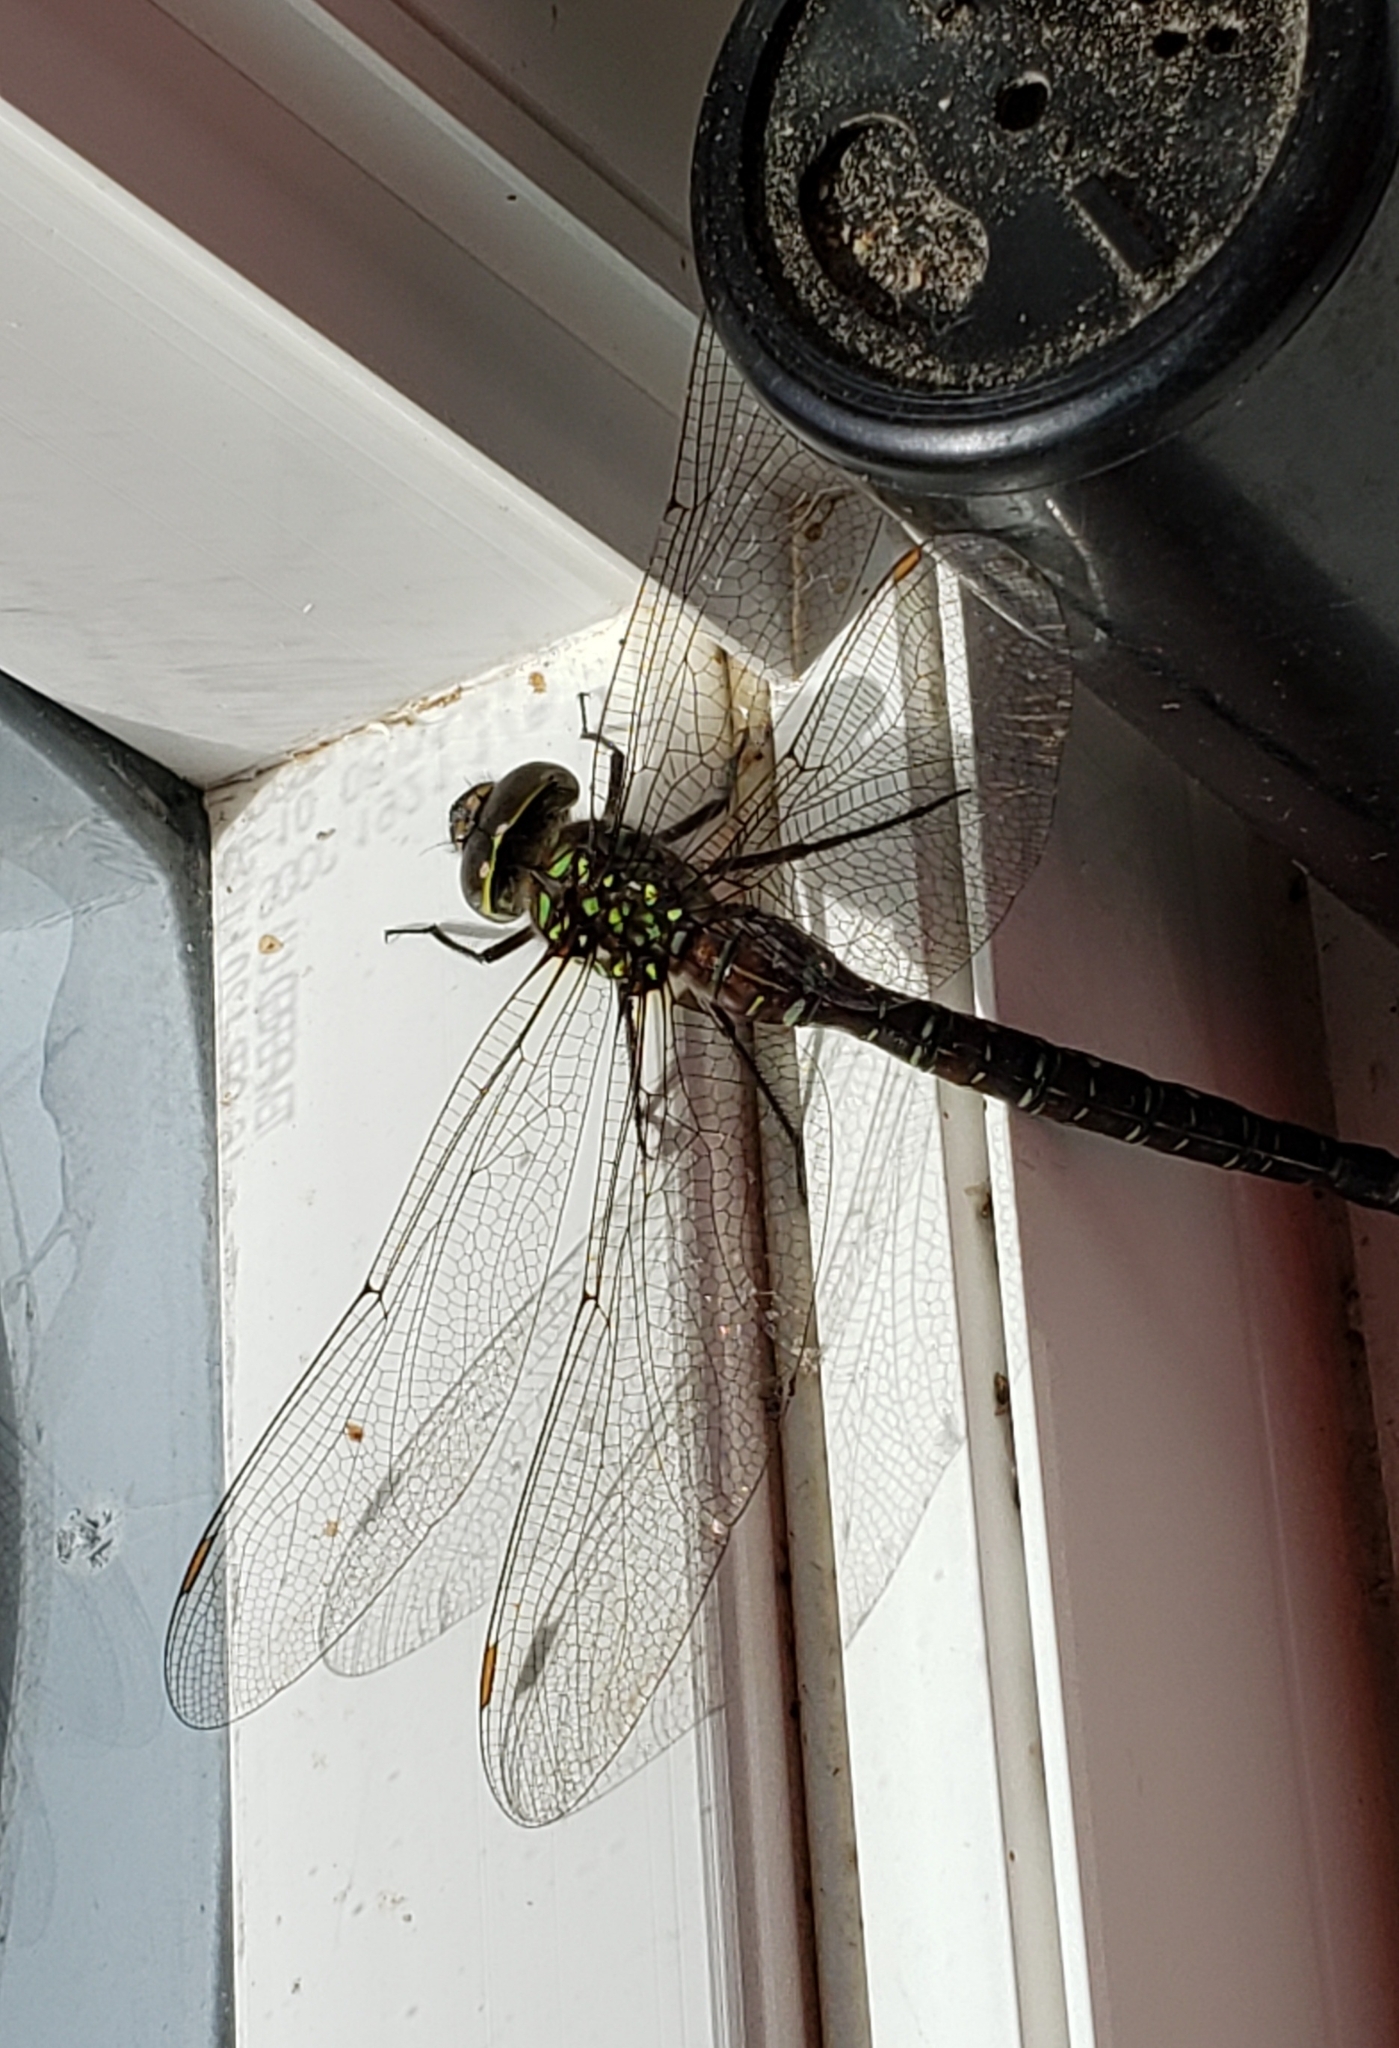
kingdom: Animalia
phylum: Arthropoda
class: Insecta
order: Odonata
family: Aeshnidae
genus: Aeshna
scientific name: Aeshna umbrosa
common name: Shadow darner
